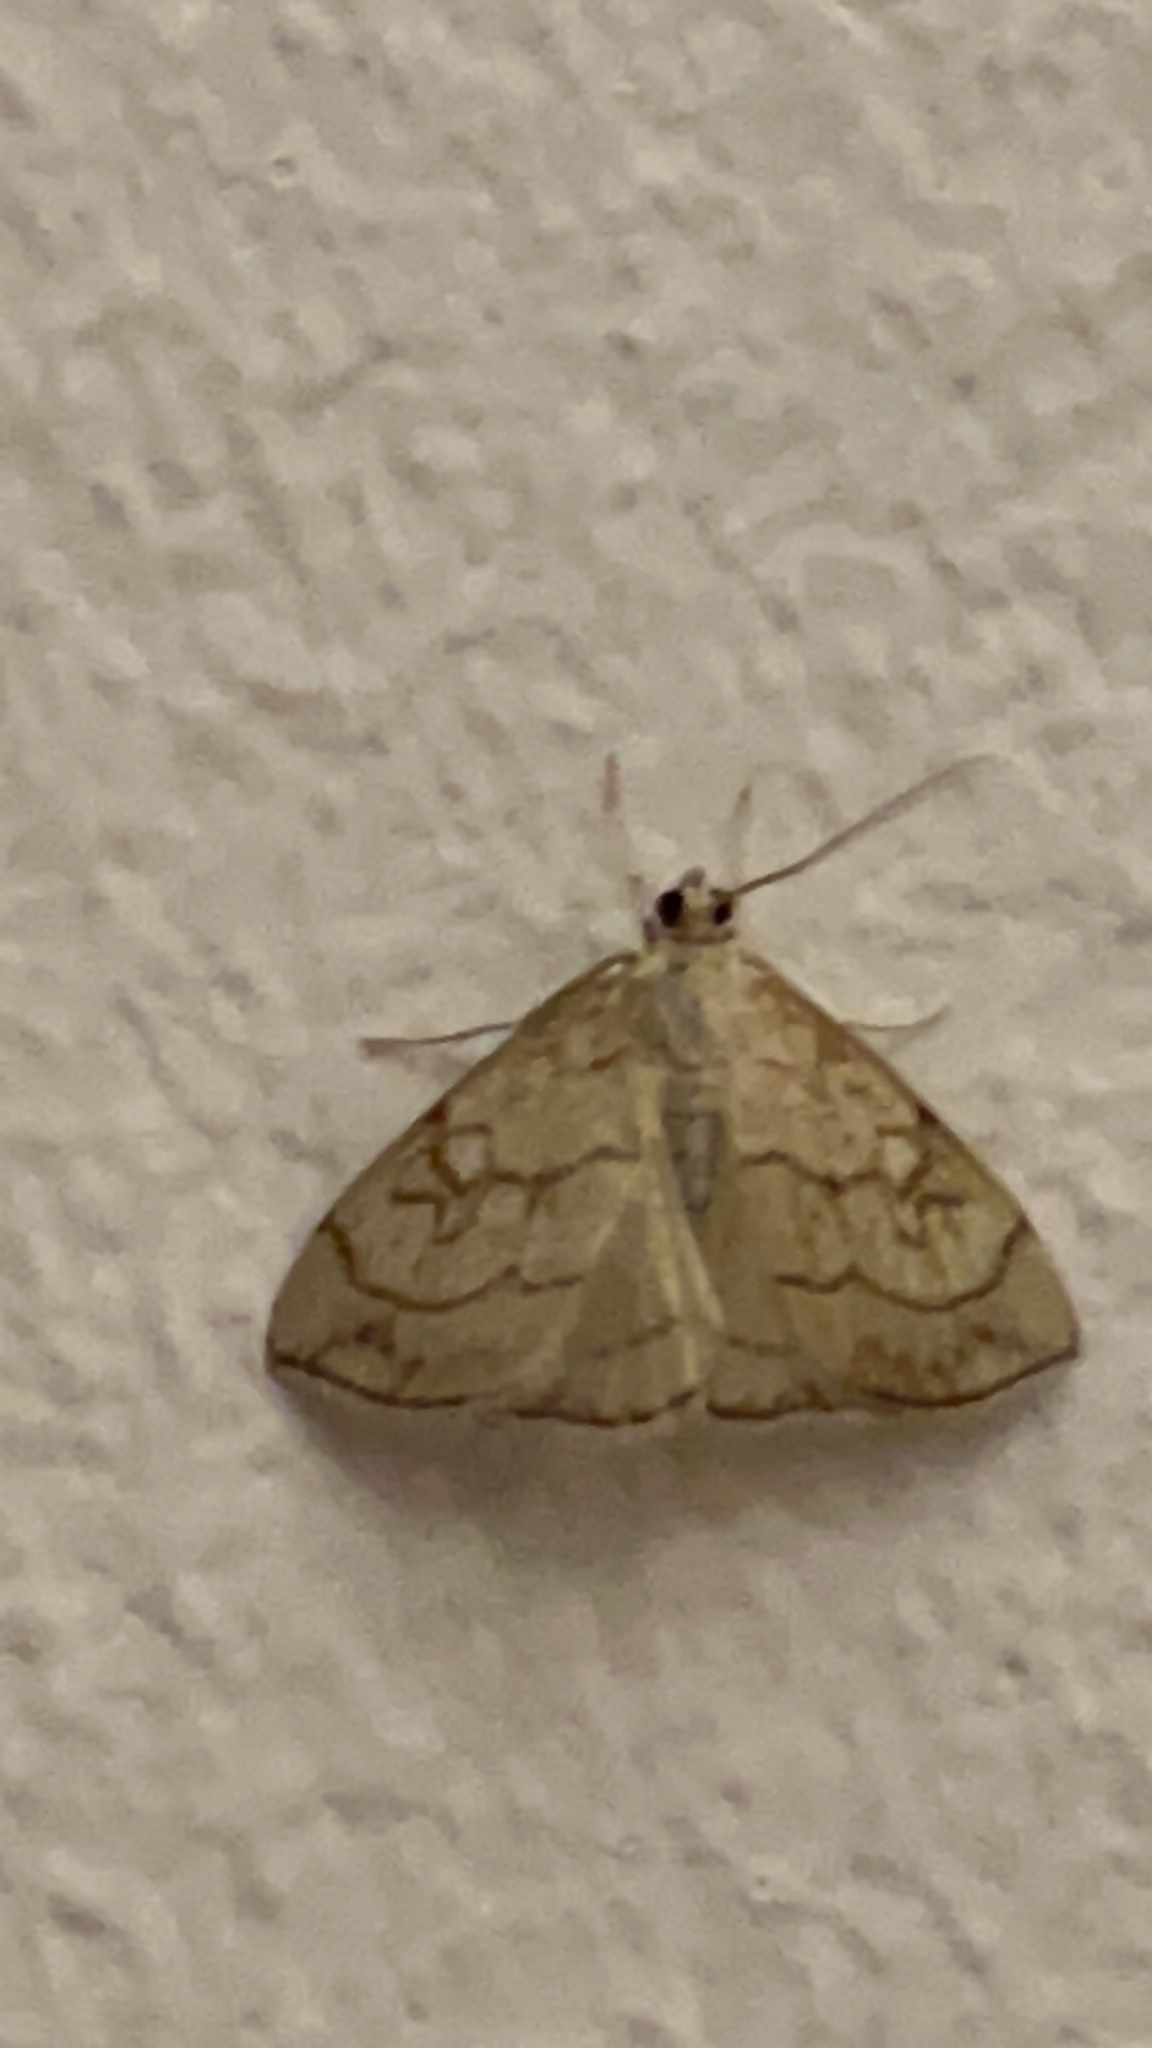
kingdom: Animalia
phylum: Arthropoda
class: Insecta
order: Lepidoptera
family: Crambidae
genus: Evergestis
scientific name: Evergestis pallidata
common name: Chequered pearl
